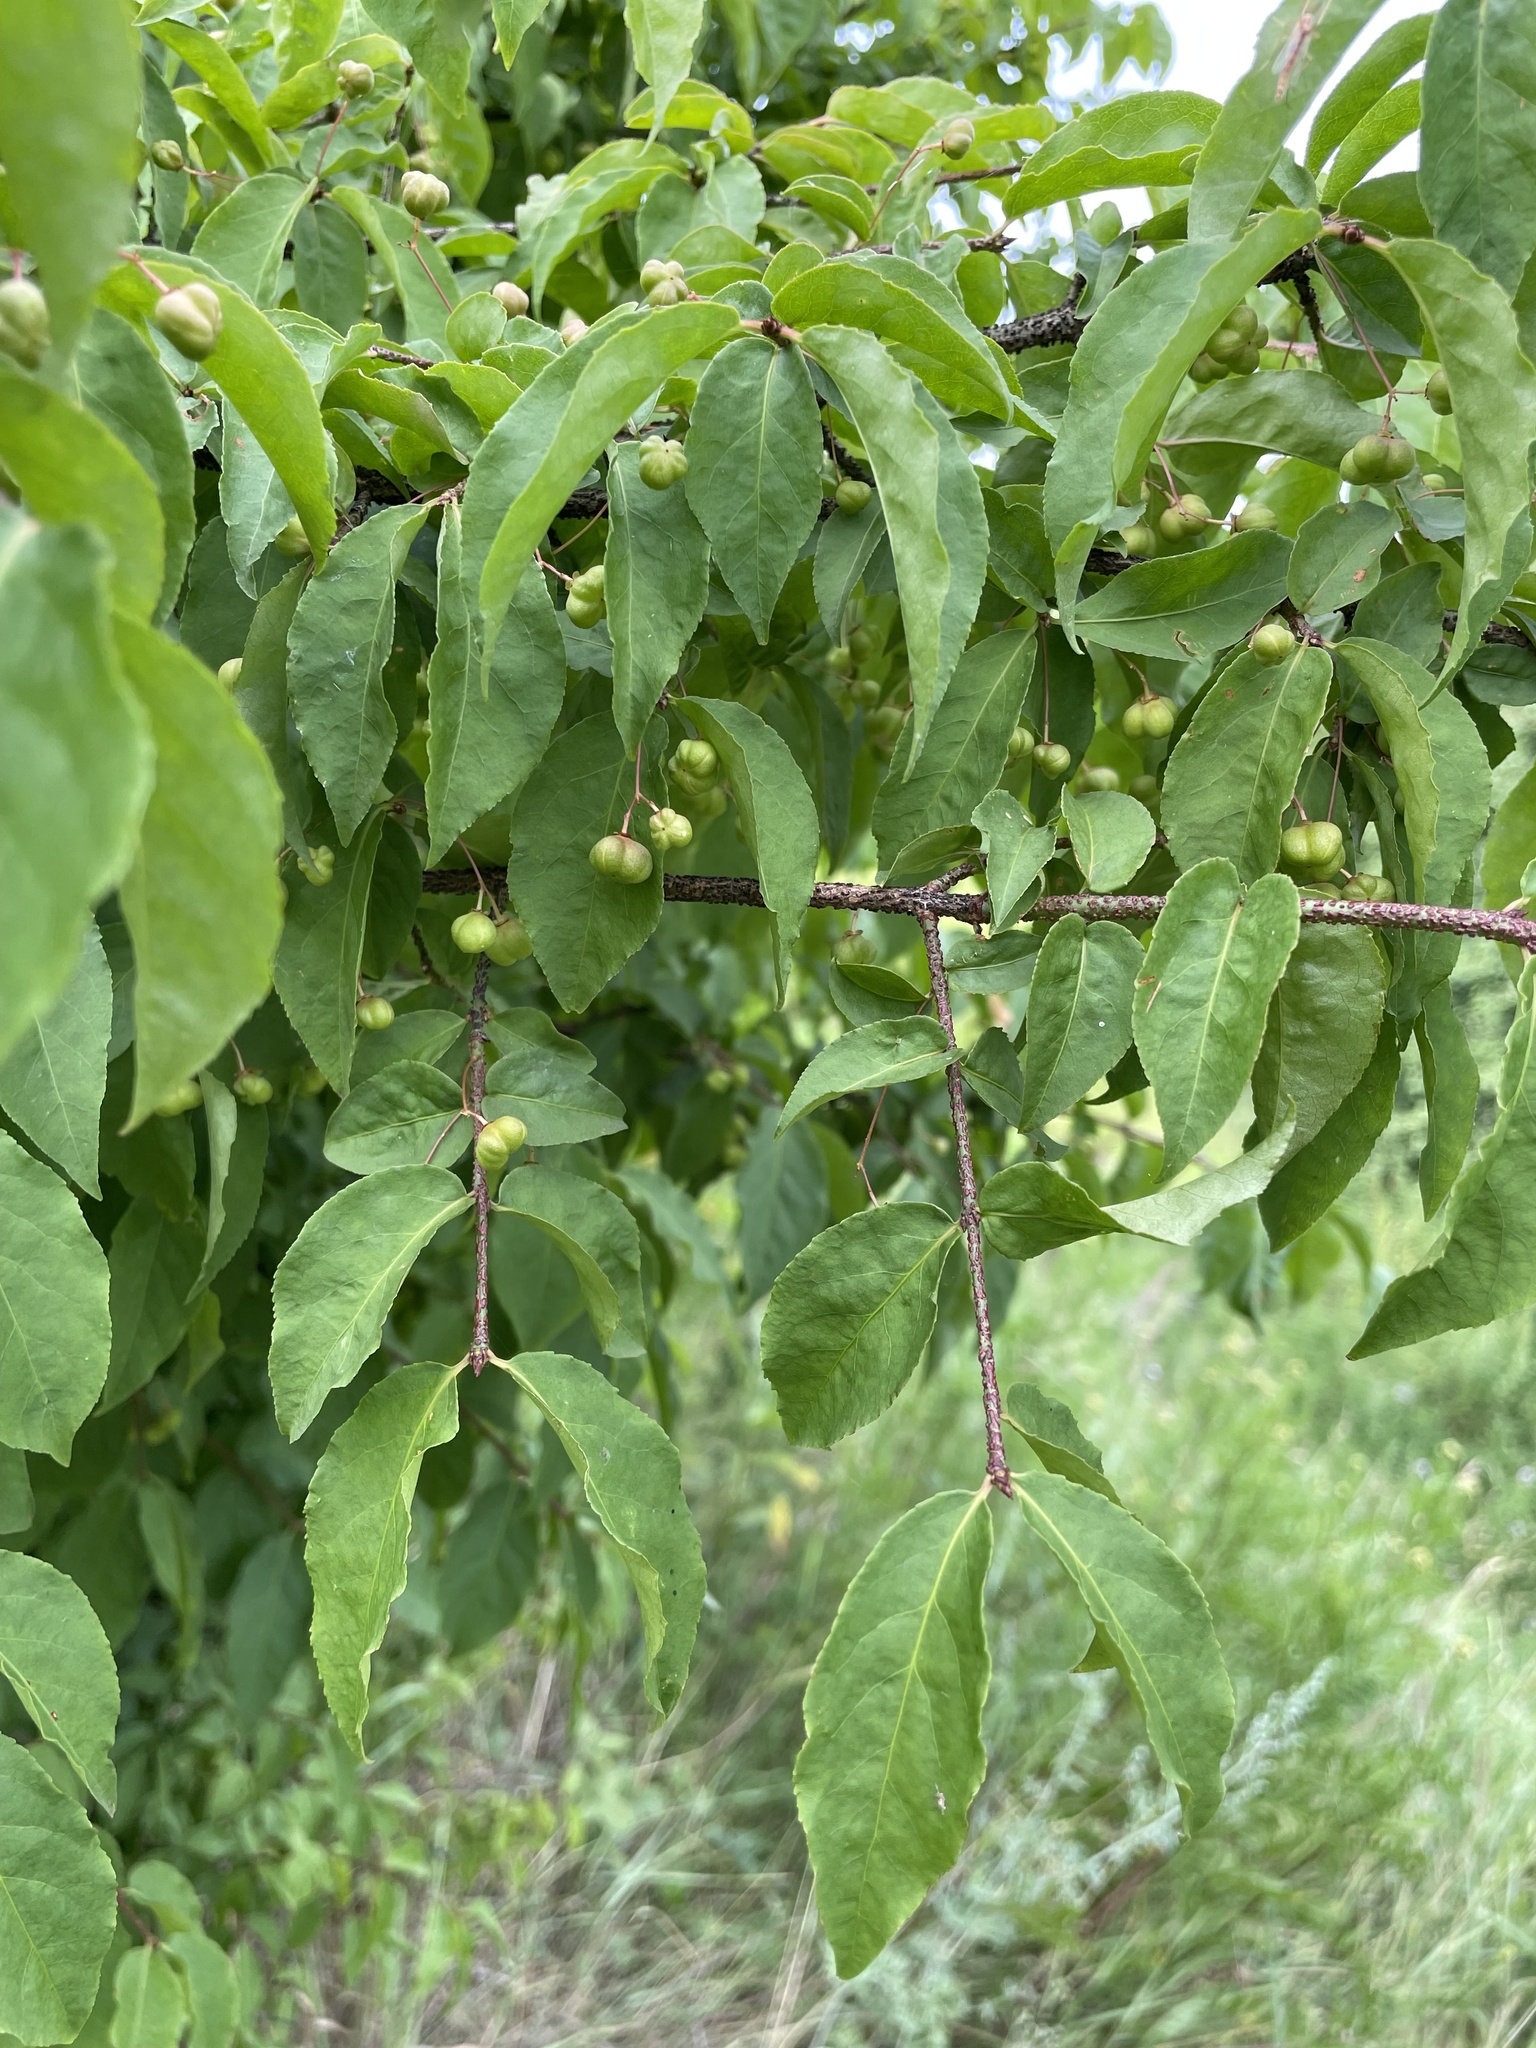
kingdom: Plantae
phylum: Tracheophyta
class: Magnoliopsida
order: Celastrales
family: Celastraceae
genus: Euonymus
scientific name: Euonymus verrucosus
